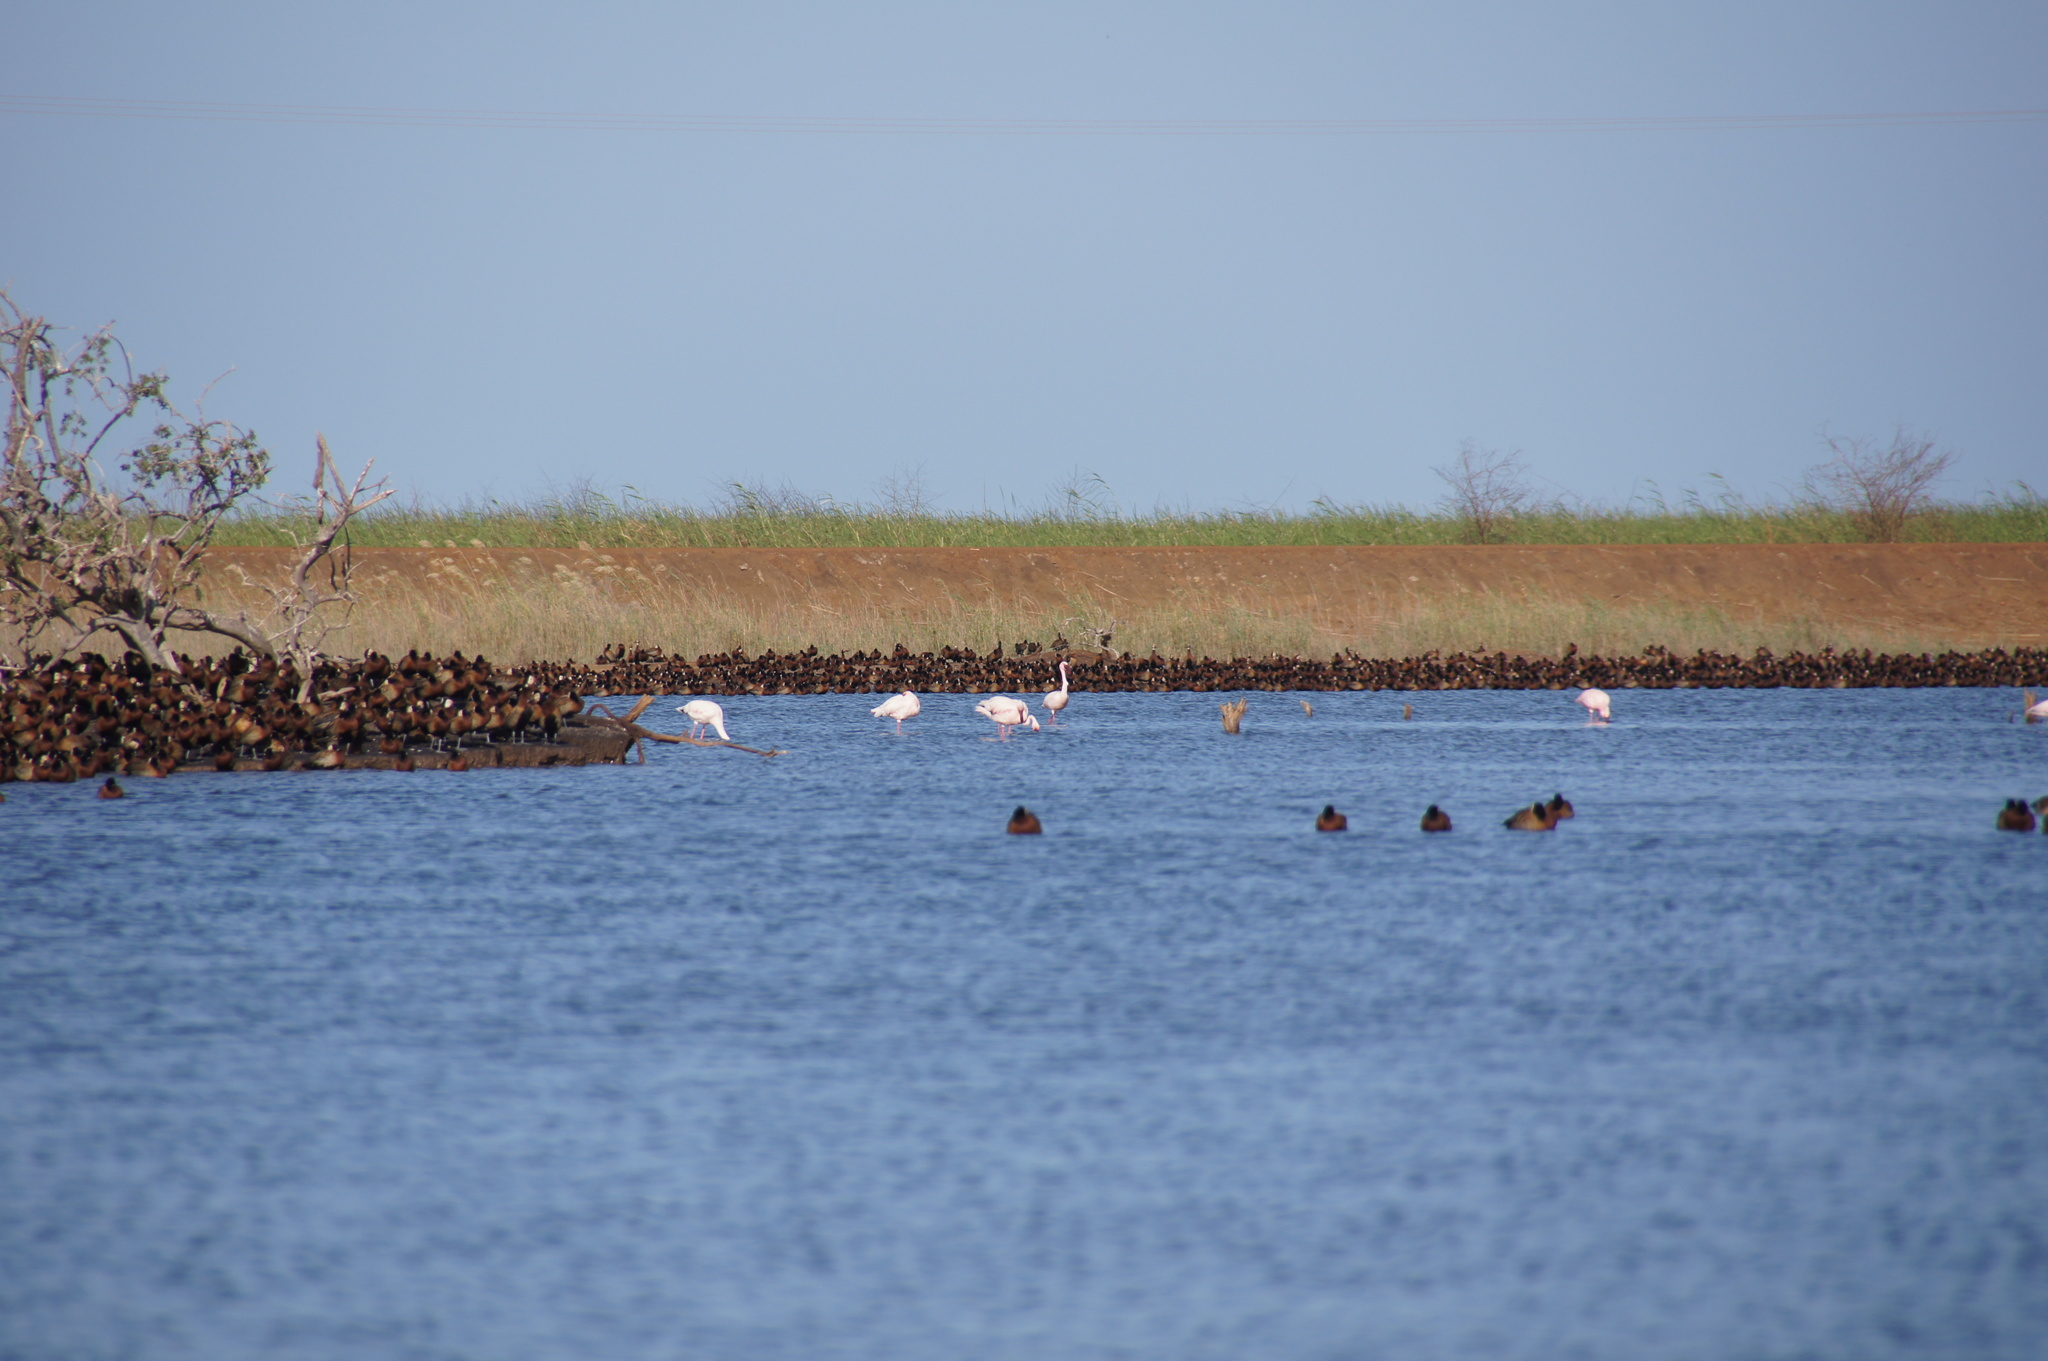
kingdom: Animalia
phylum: Chordata
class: Aves
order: Phoenicopteriformes
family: Phoenicopteridae
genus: Phoeniconaias
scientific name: Phoeniconaias minor
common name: Lesser flamingo
